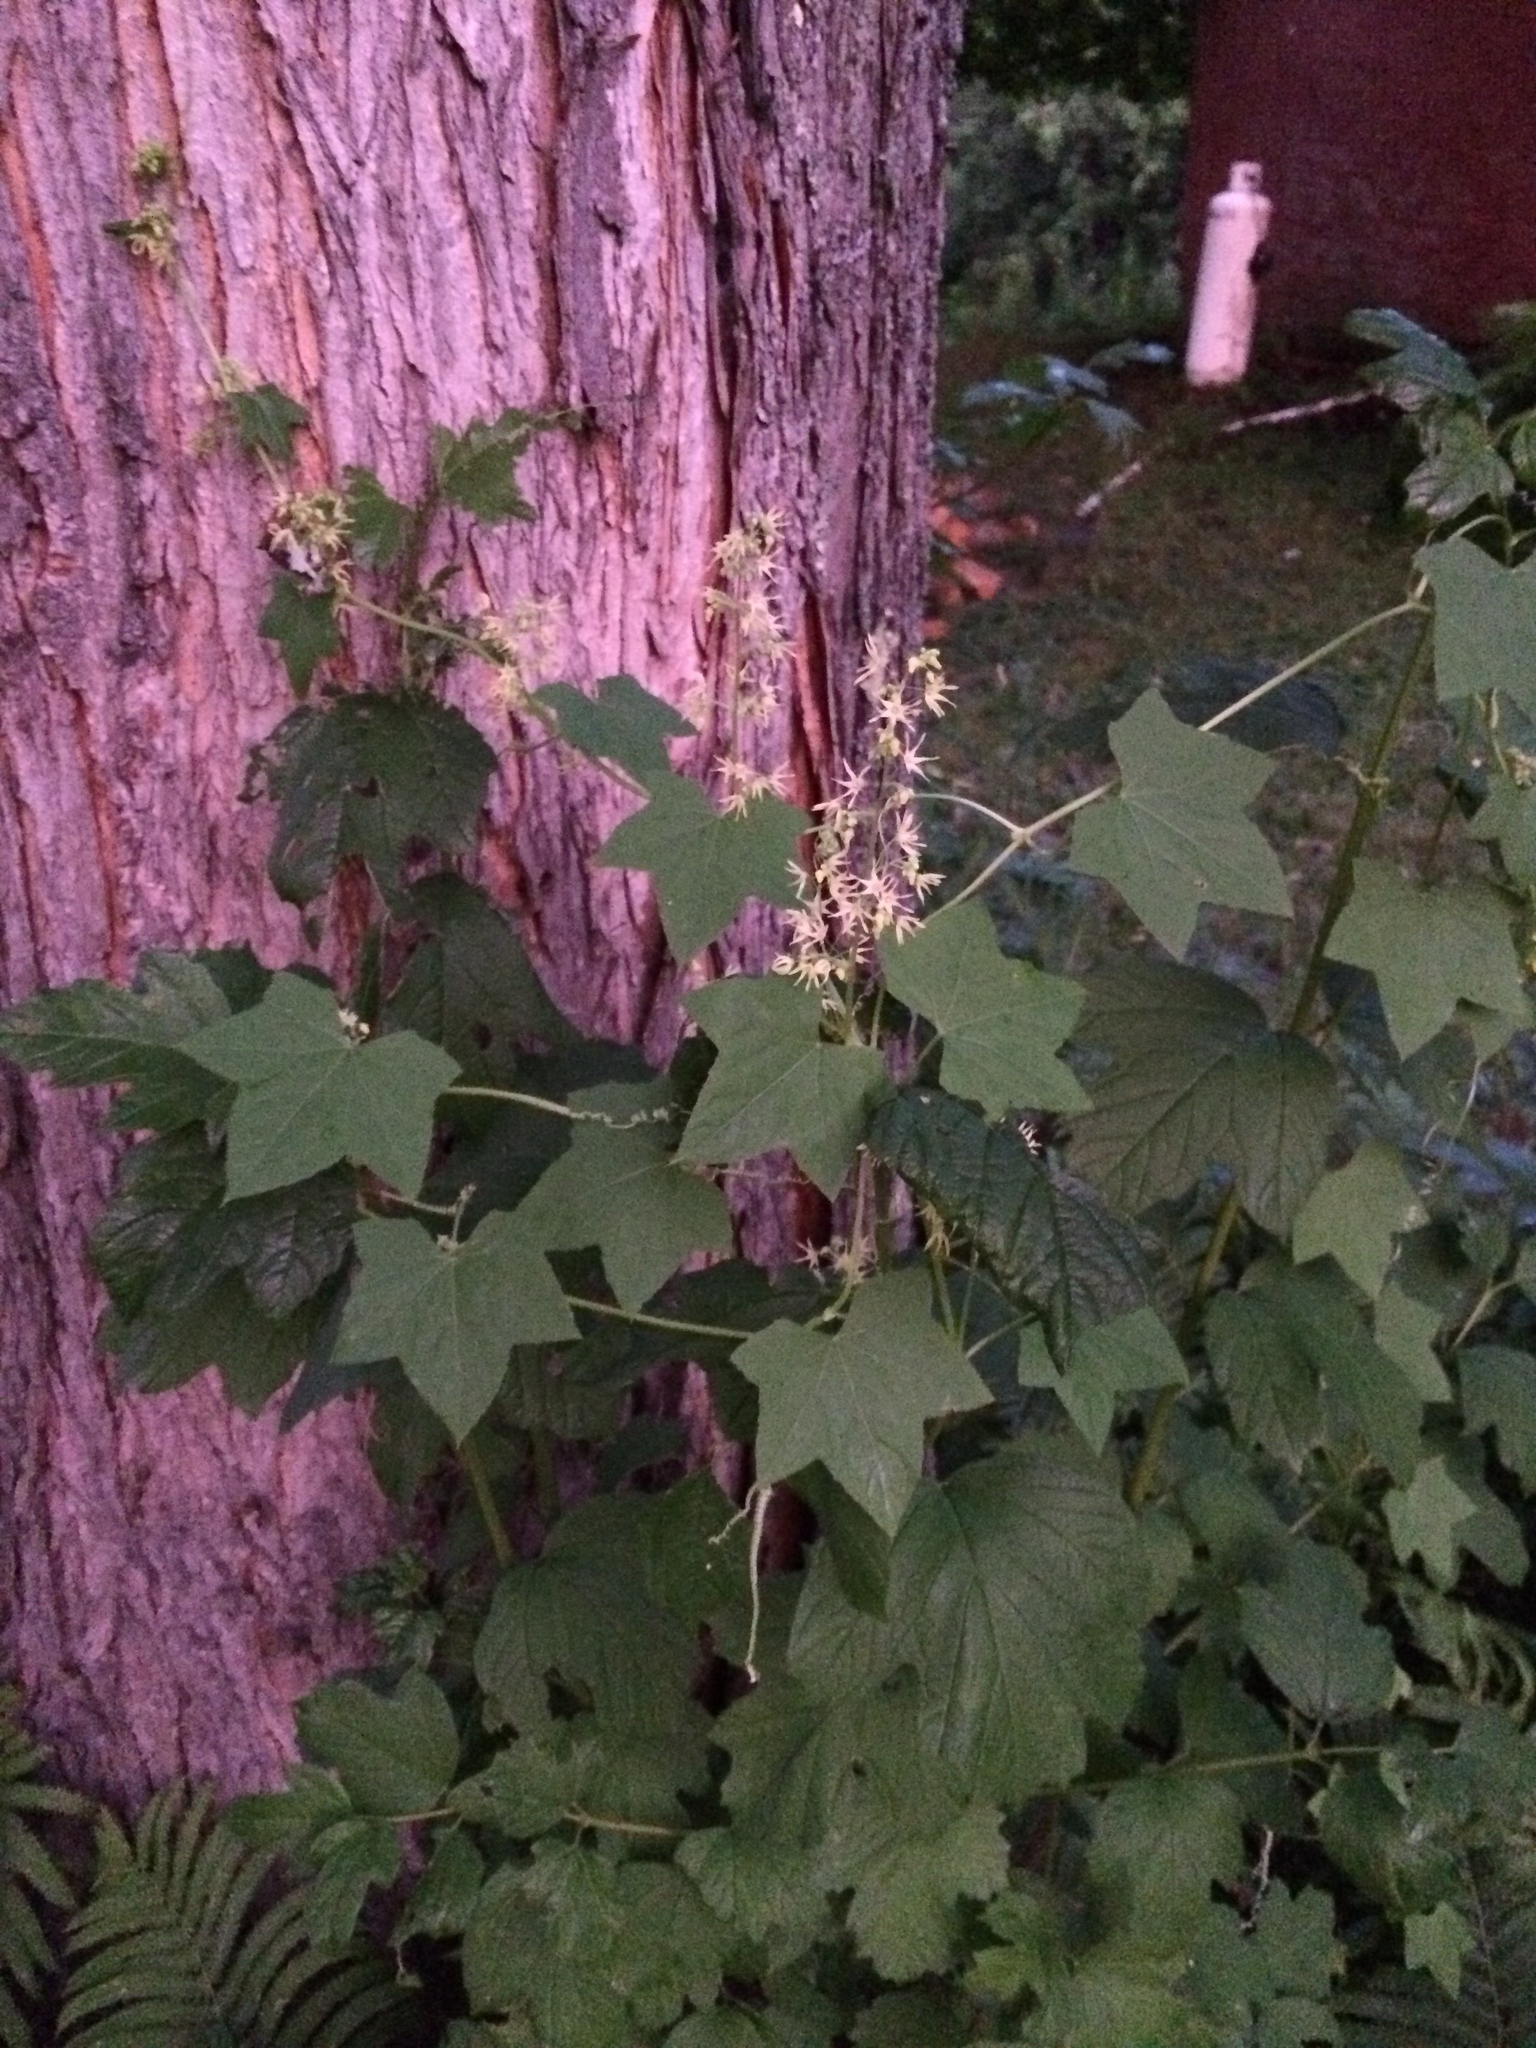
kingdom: Plantae
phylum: Tracheophyta
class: Magnoliopsida
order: Cucurbitales
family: Cucurbitaceae
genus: Echinocystis
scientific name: Echinocystis lobata
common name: Wild cucumber
